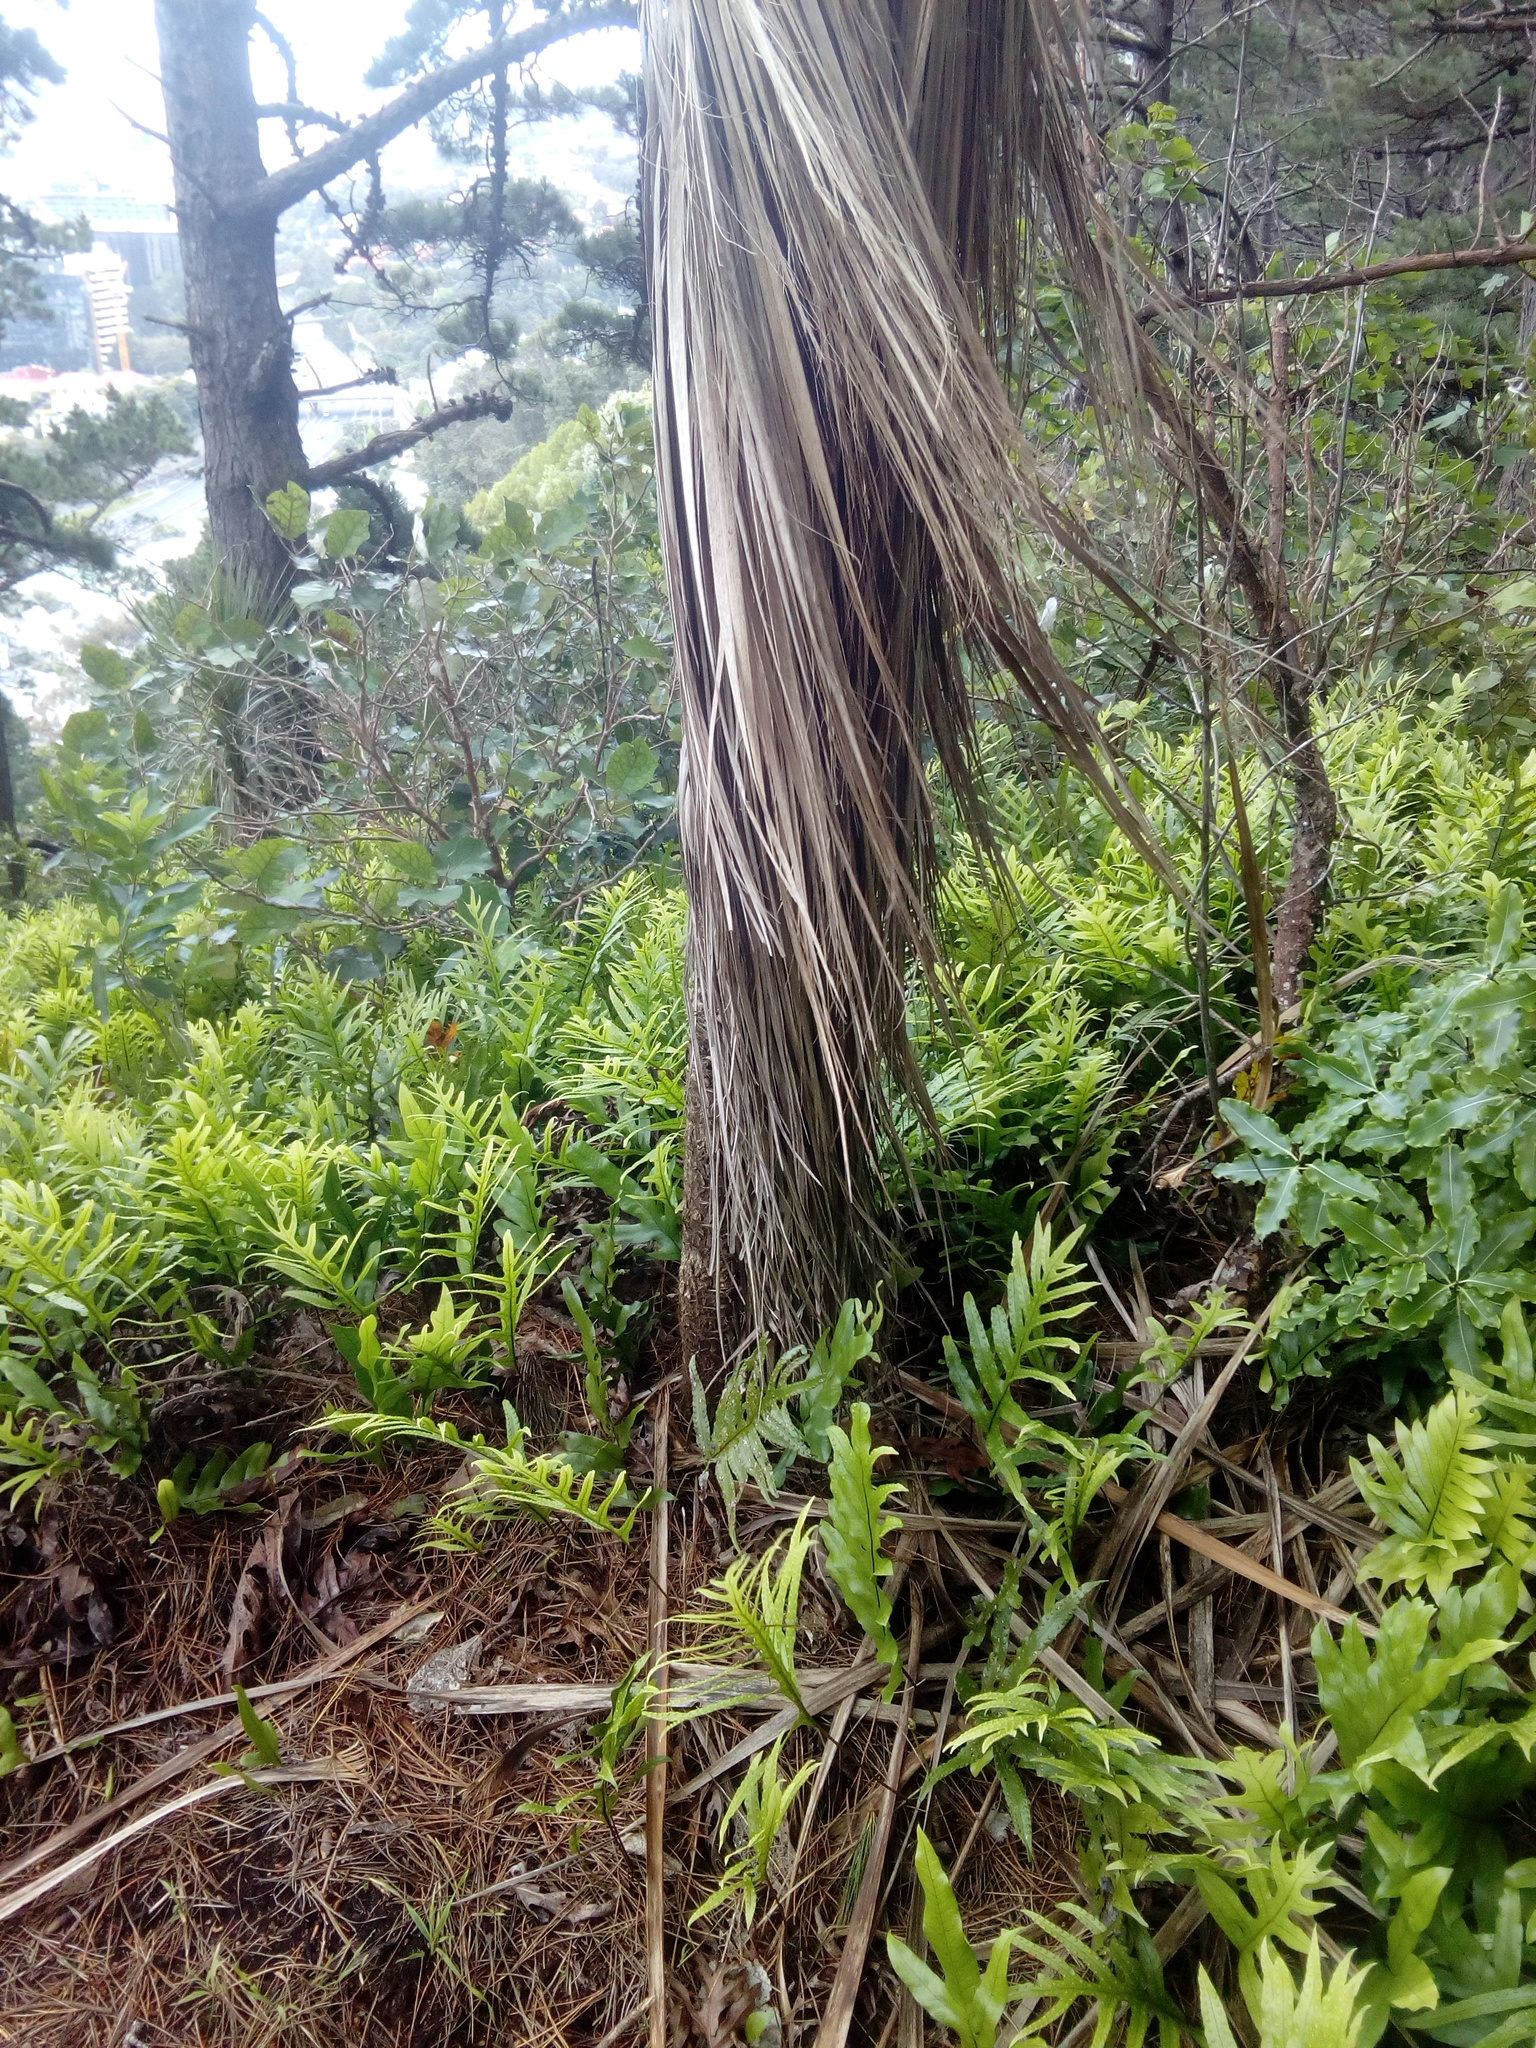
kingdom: Plantae
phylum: Tracheophyta
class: Liliopsida
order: Asparagales
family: Asparagaceae
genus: Cordyline
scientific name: Cordyline australis
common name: Cabbage-palm
